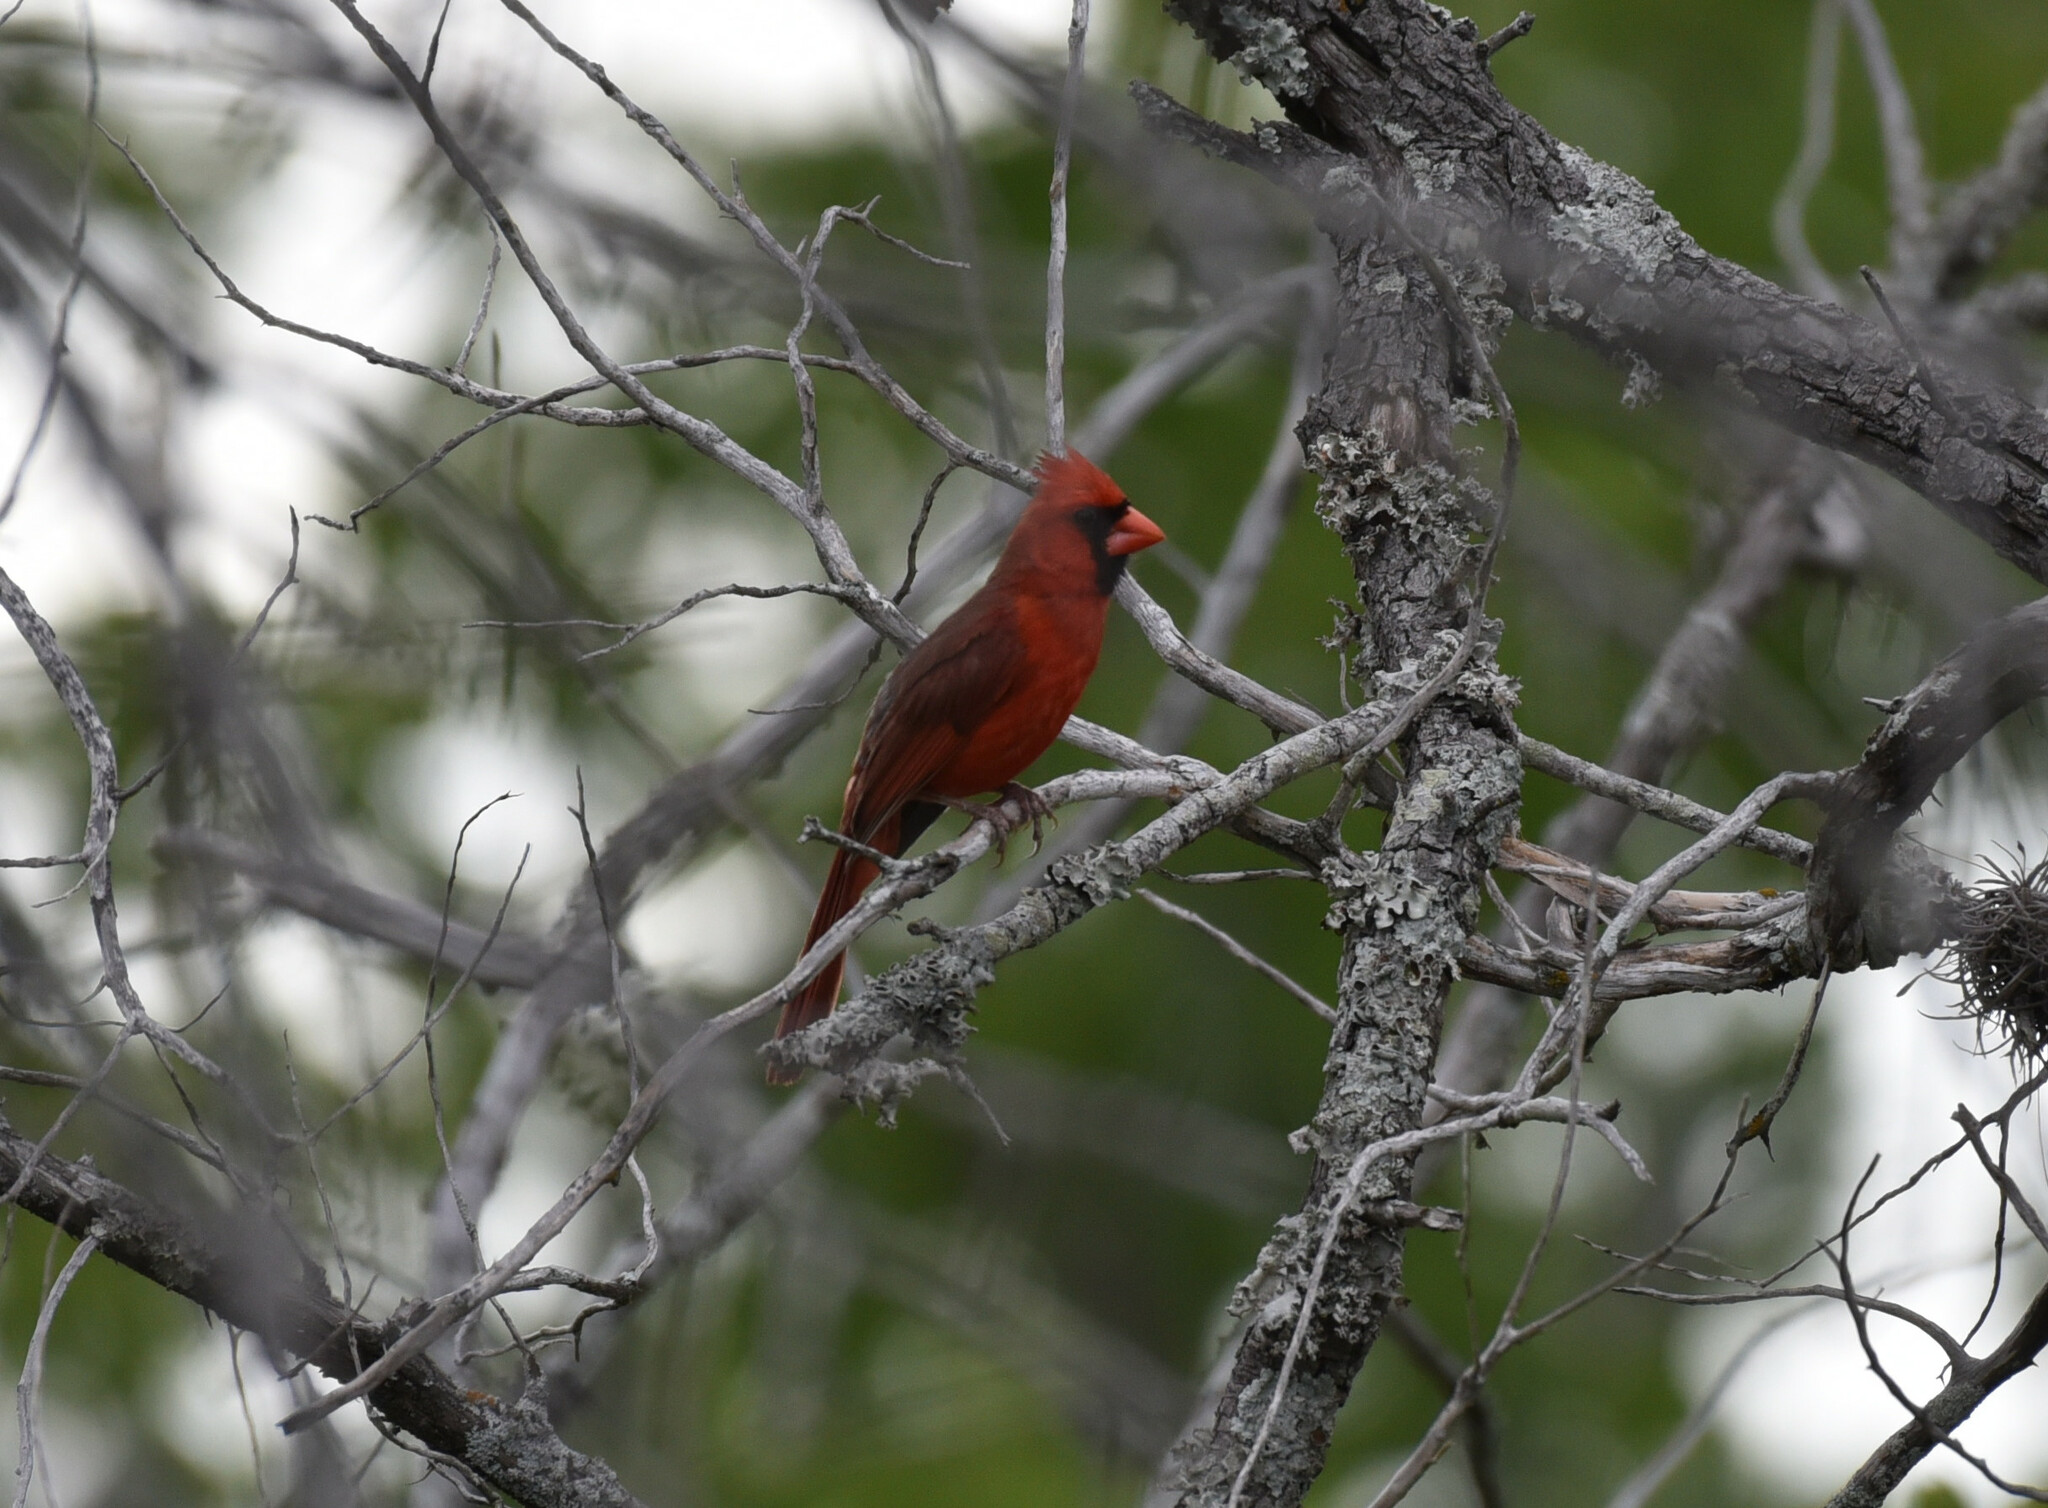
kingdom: Animalia
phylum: Chordata
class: Aves
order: Passeriformes
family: Cardinalidae
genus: Cardinalis
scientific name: Cardinalis cardinalis
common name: Northern cardinal
